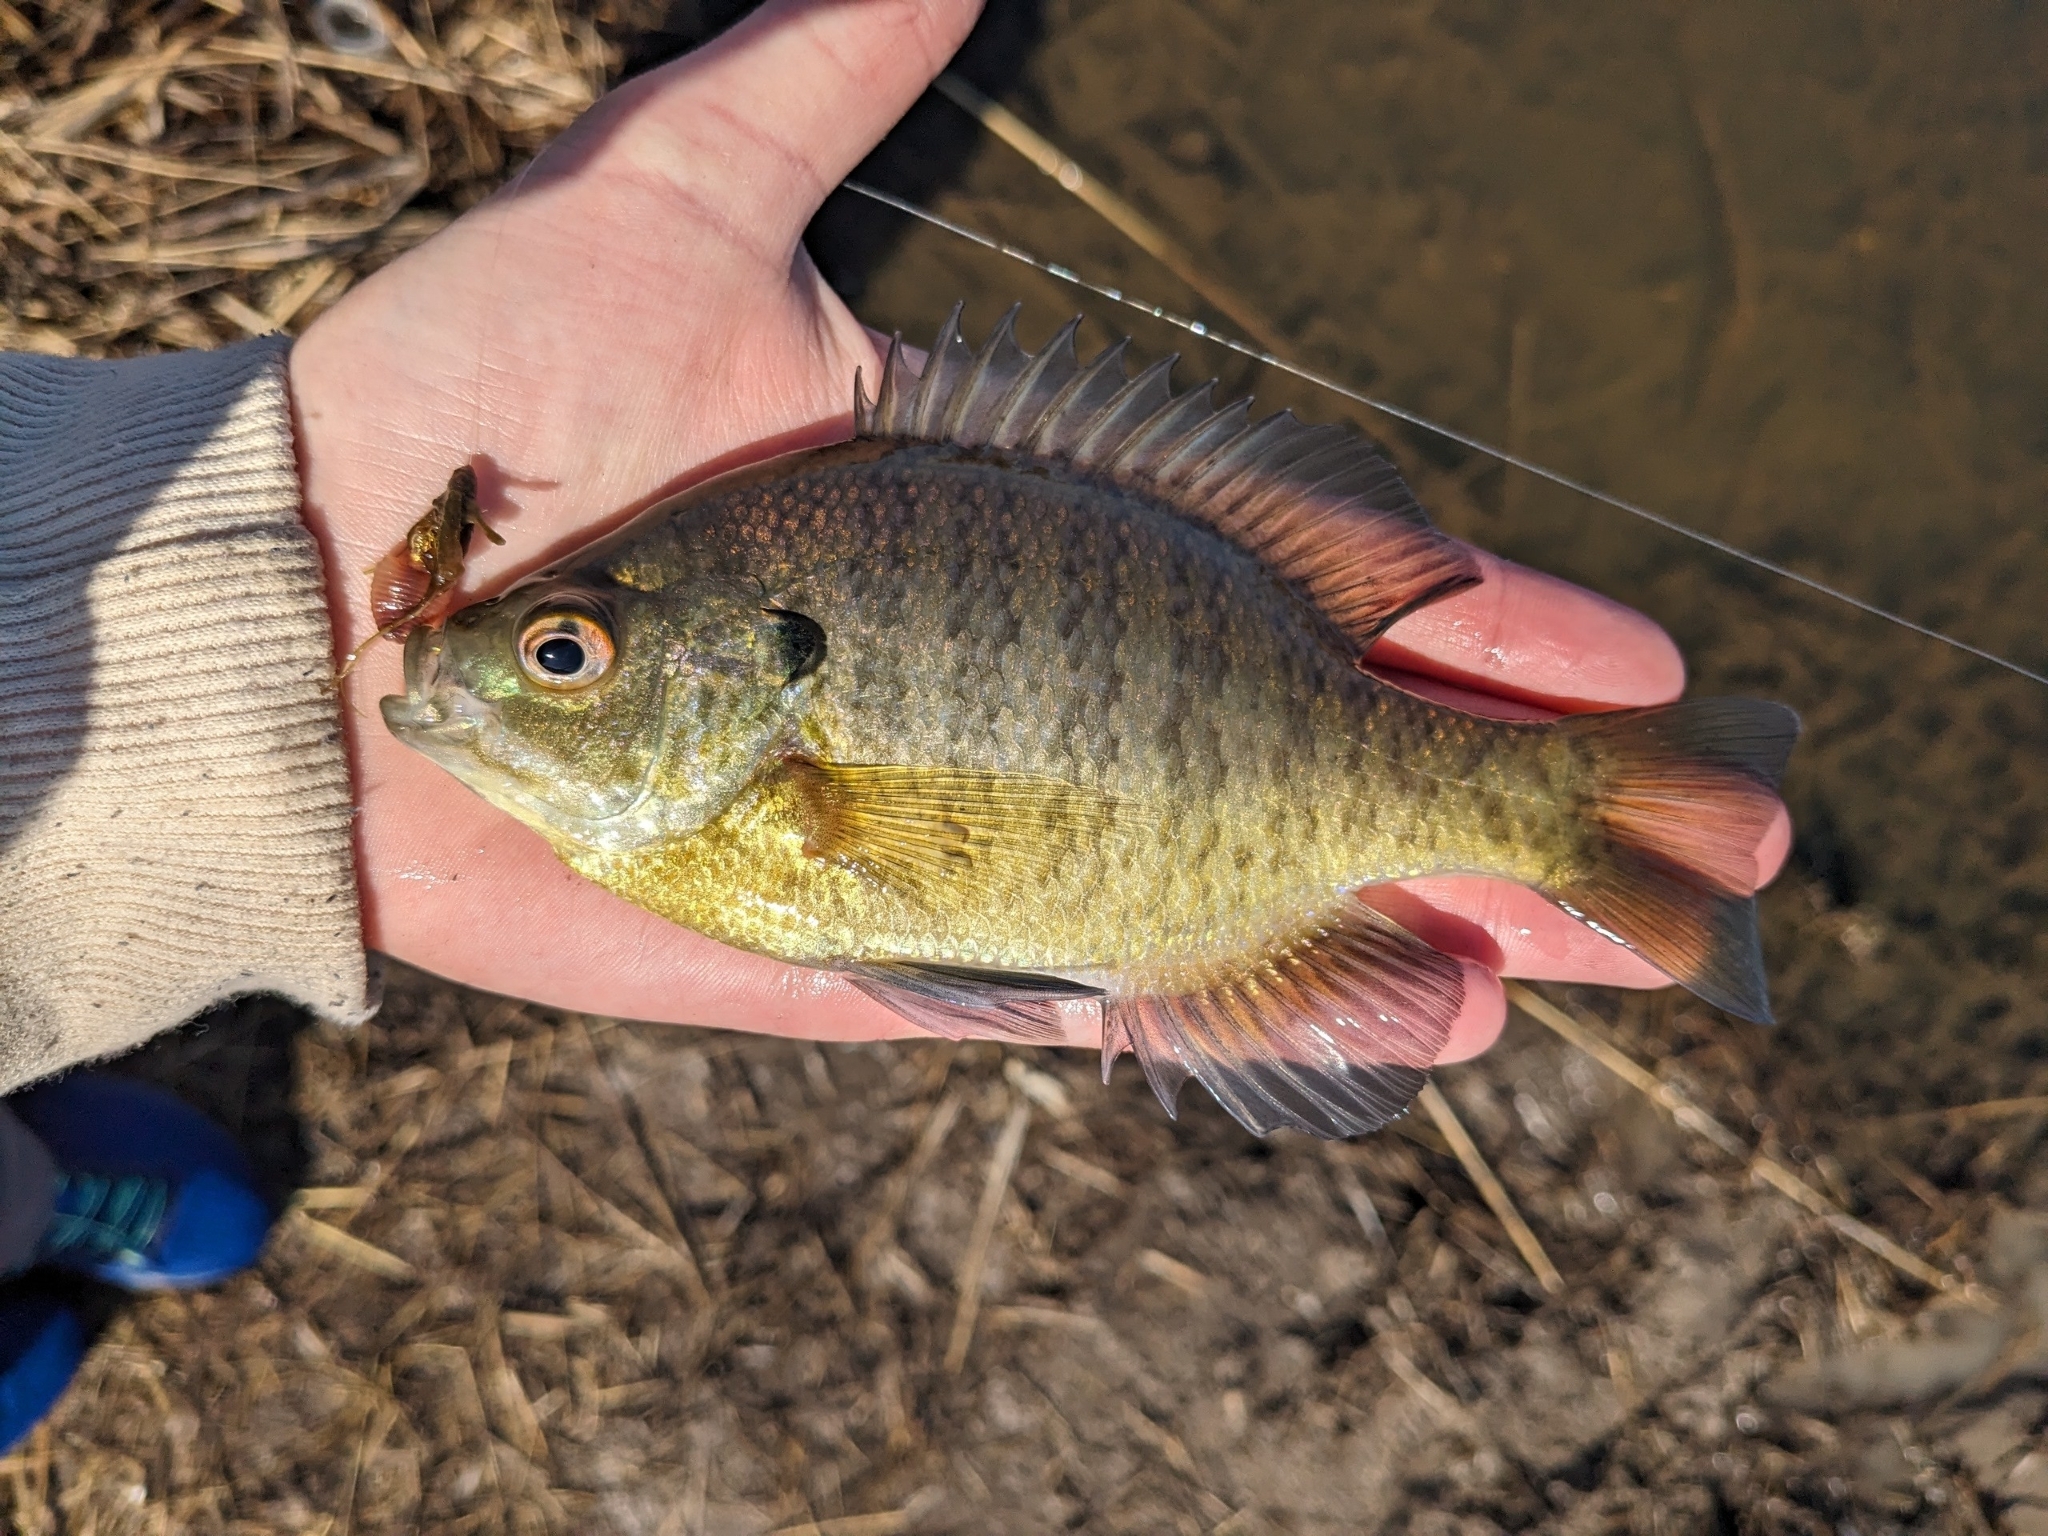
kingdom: Animalia
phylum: Chordata
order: Perciformes
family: Centrarchidae
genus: Lepomis
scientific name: Lepomis macrochirus
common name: Bluegill
